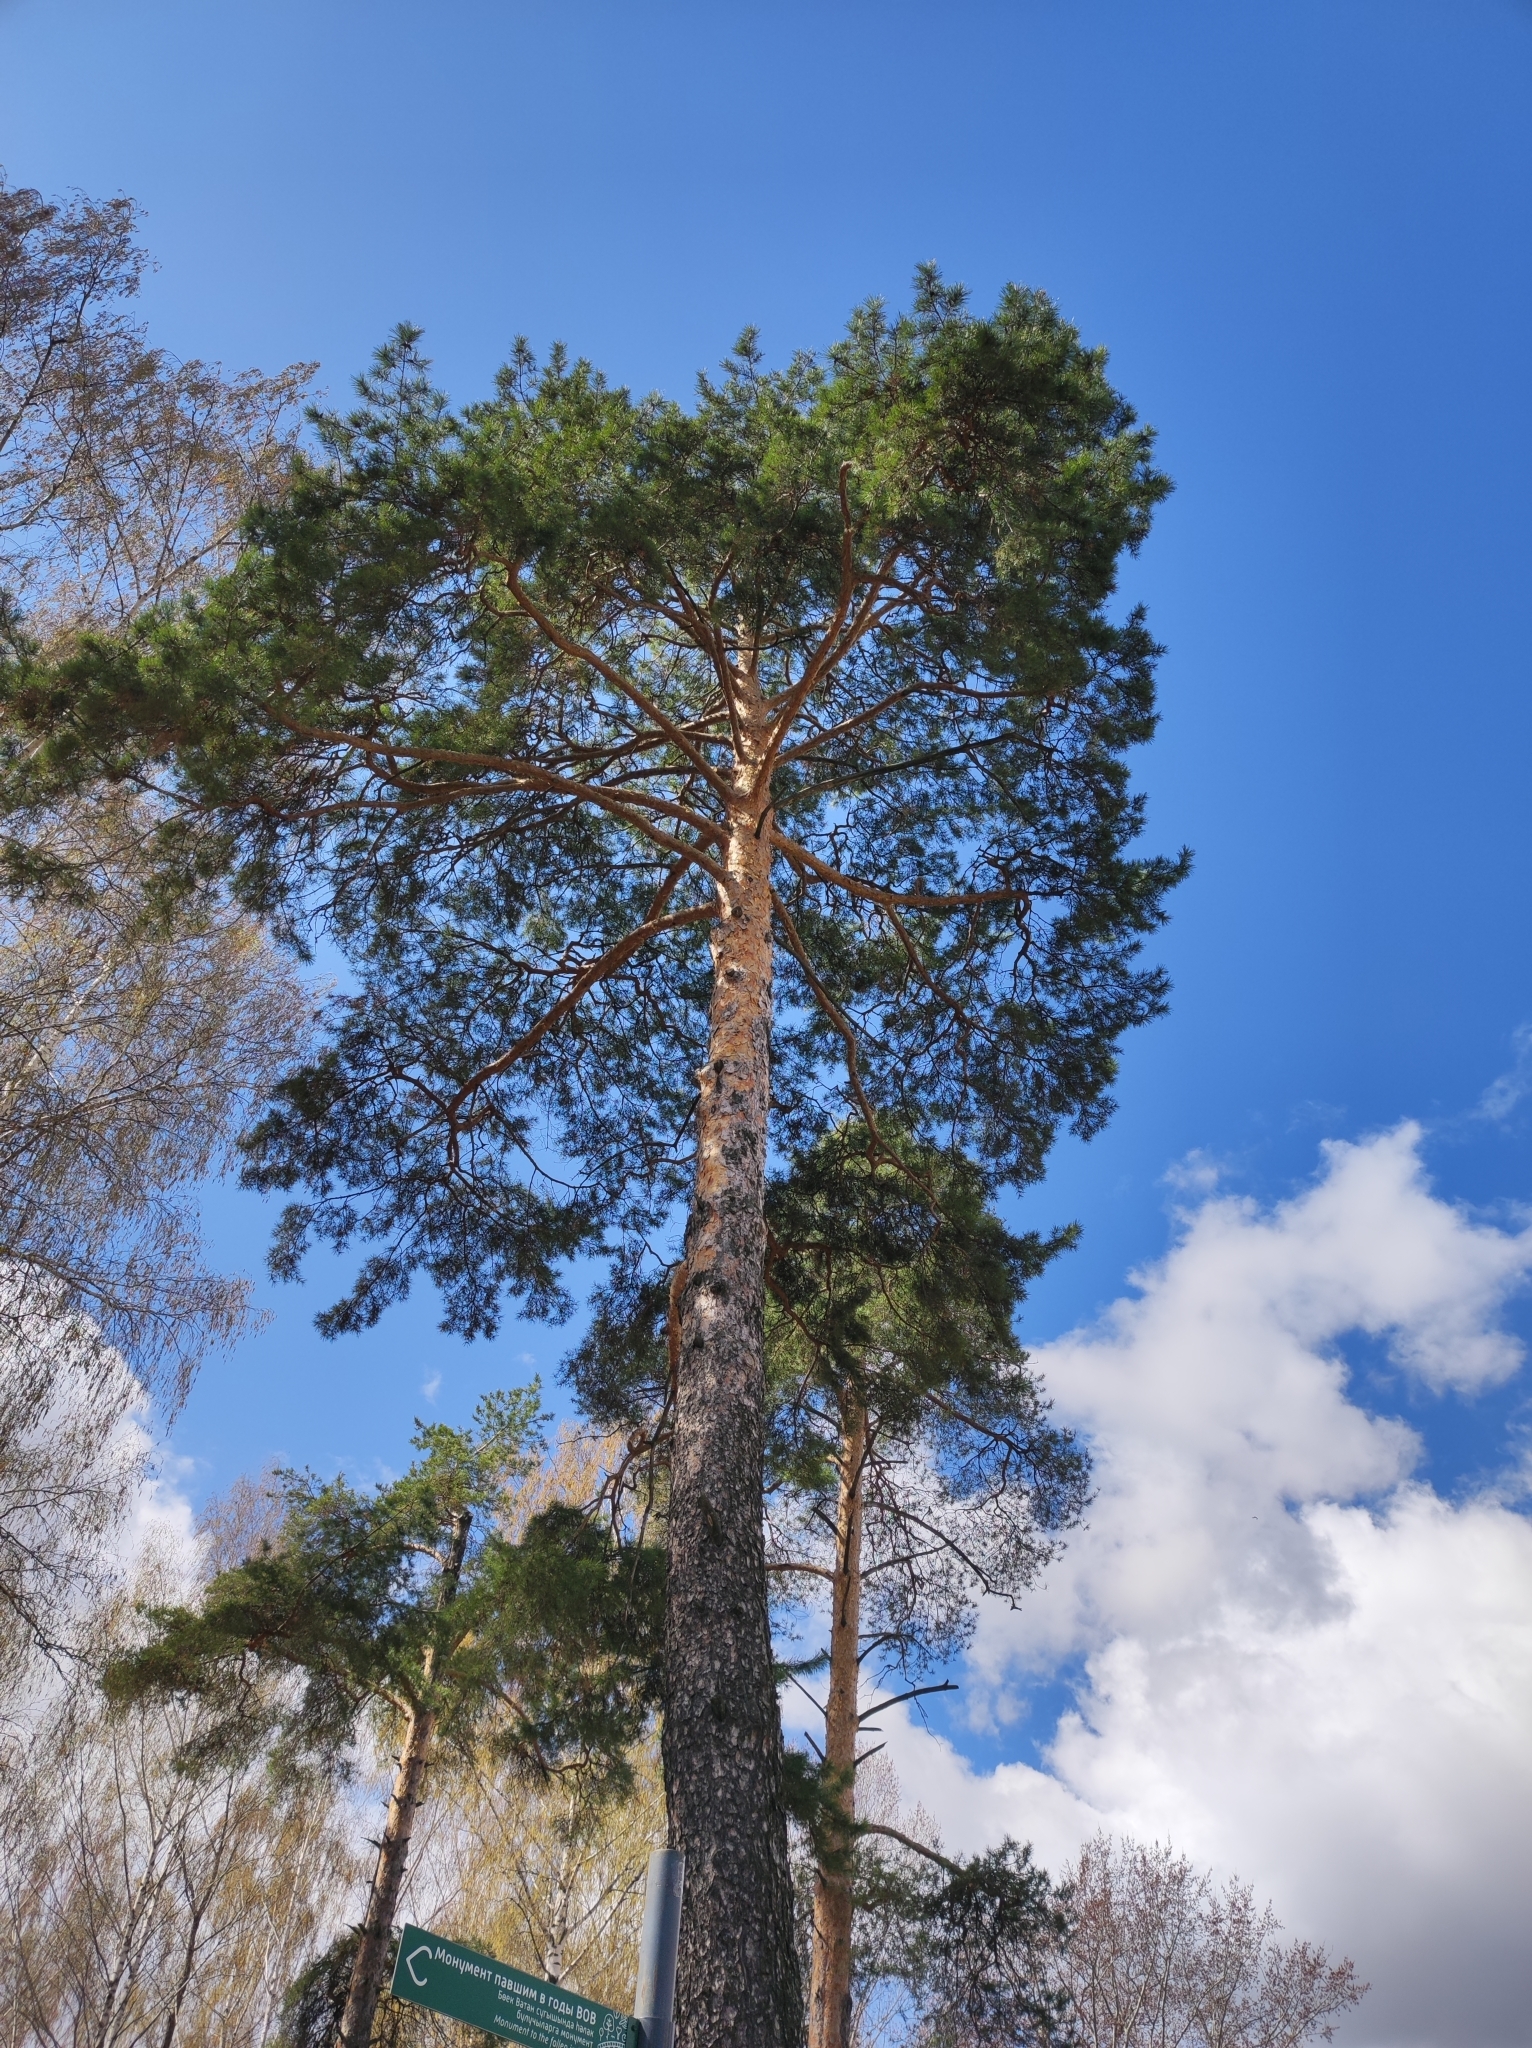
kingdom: Plantae
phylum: Tracheophyta
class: Pinopsida
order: Pinales
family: Pinaceae
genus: Pinus
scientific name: Pinus sylvestris
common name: Scots pine
